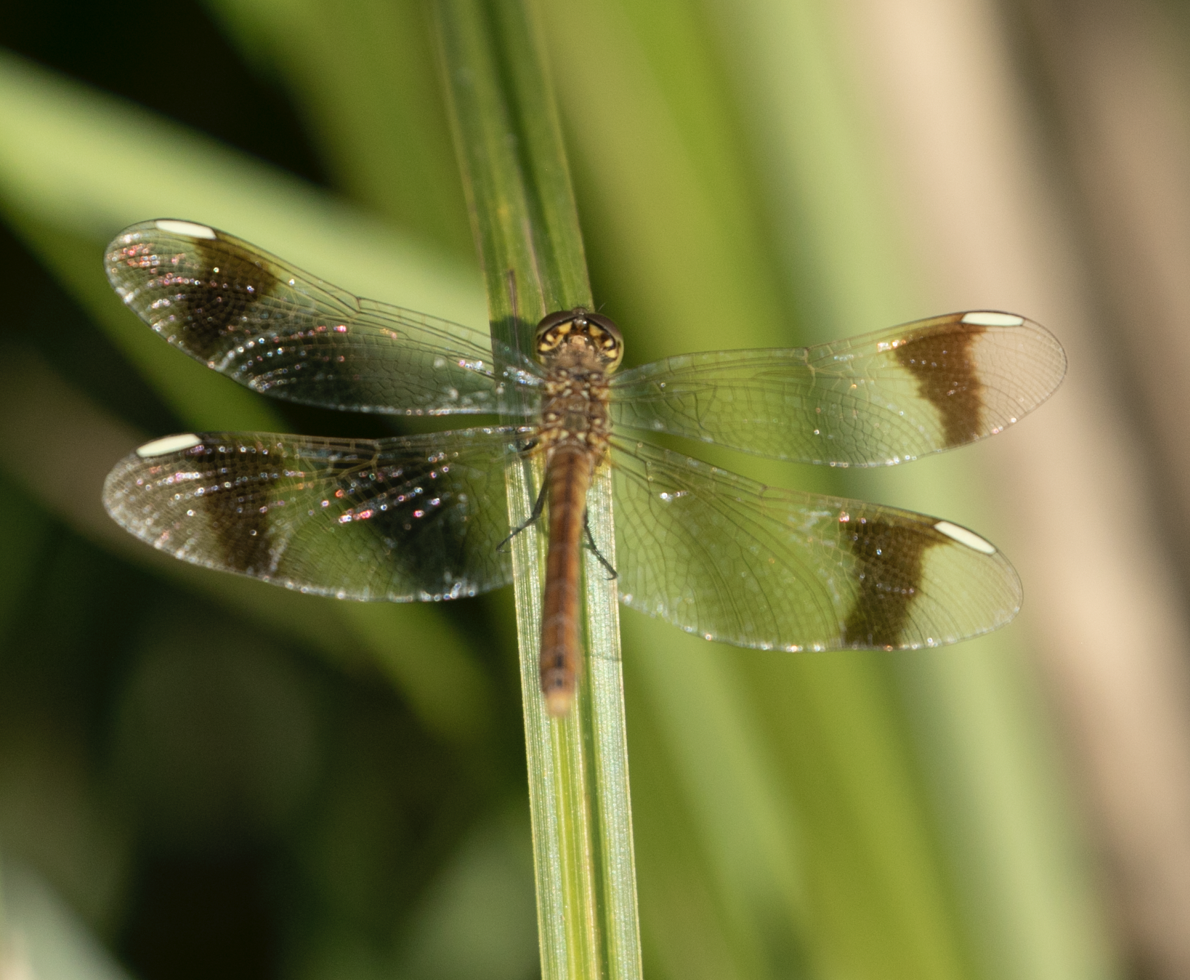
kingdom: Animalia
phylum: Arthropoda
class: Insecta
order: Odonata
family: Libellulidae
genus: Sympetrum
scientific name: Sympetrum pedemontanum
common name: Banded darter
